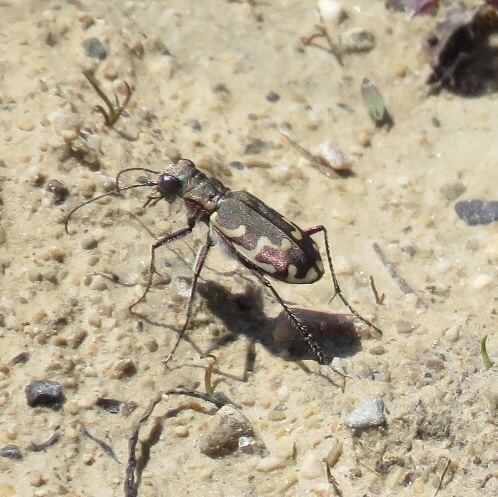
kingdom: Animalia
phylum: Arthropoda
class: Insecta
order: Coleoptera
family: Carabidae
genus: Cicindela
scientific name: Cicindela repanda
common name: Bronzed tiger beetle
